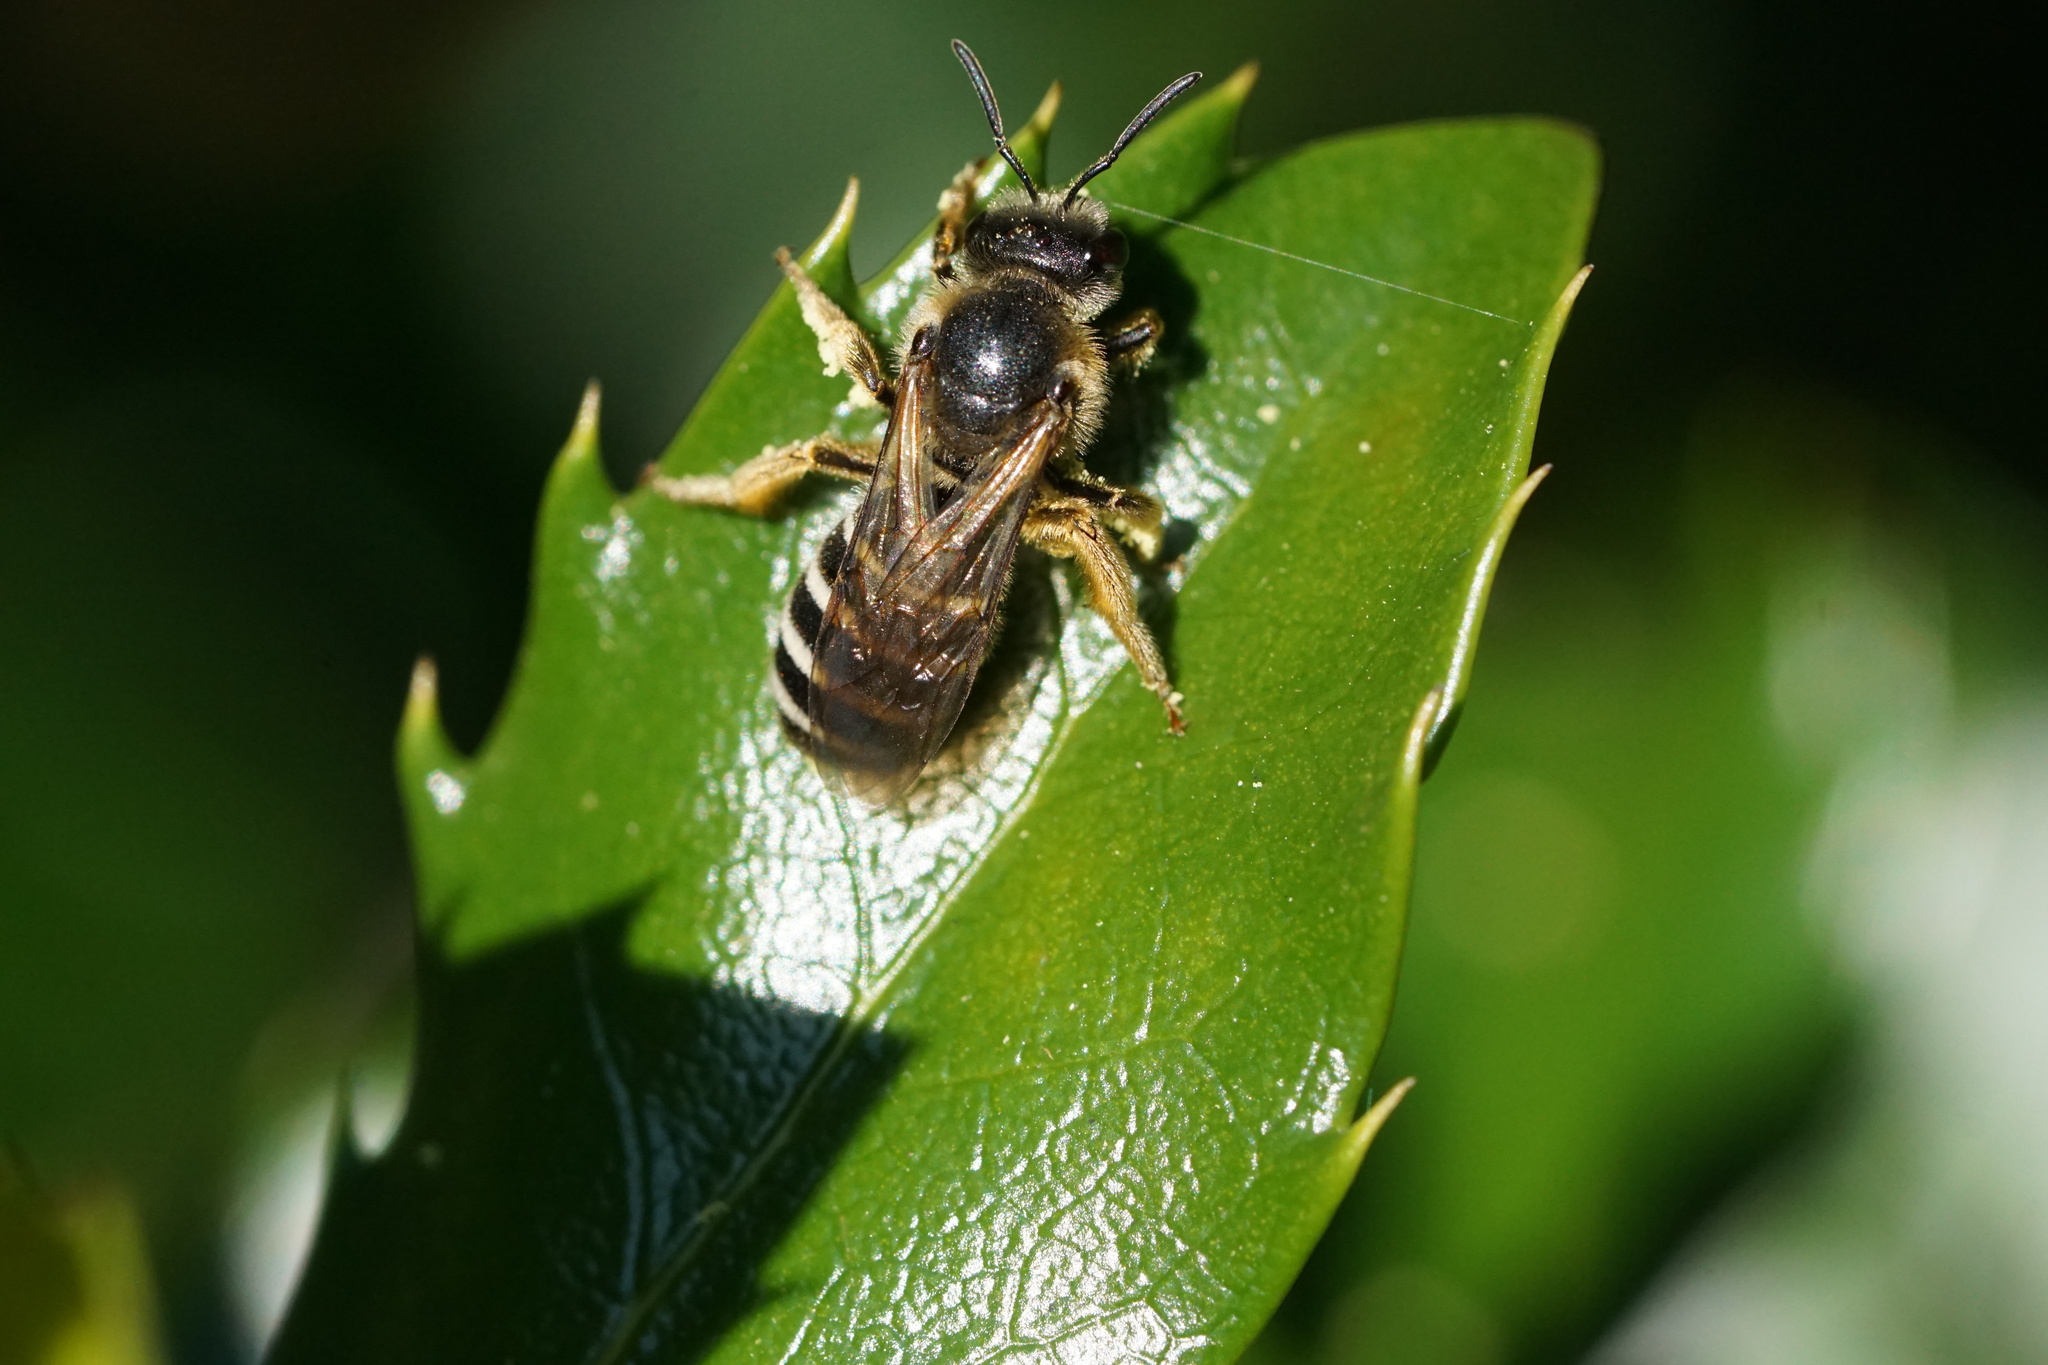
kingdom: Animalia
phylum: Arthropoda
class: Insecta
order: Hymenoptera
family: Halictidae
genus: Halictus
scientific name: Halictus rubicundus
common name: Orange-legged furrow bee
